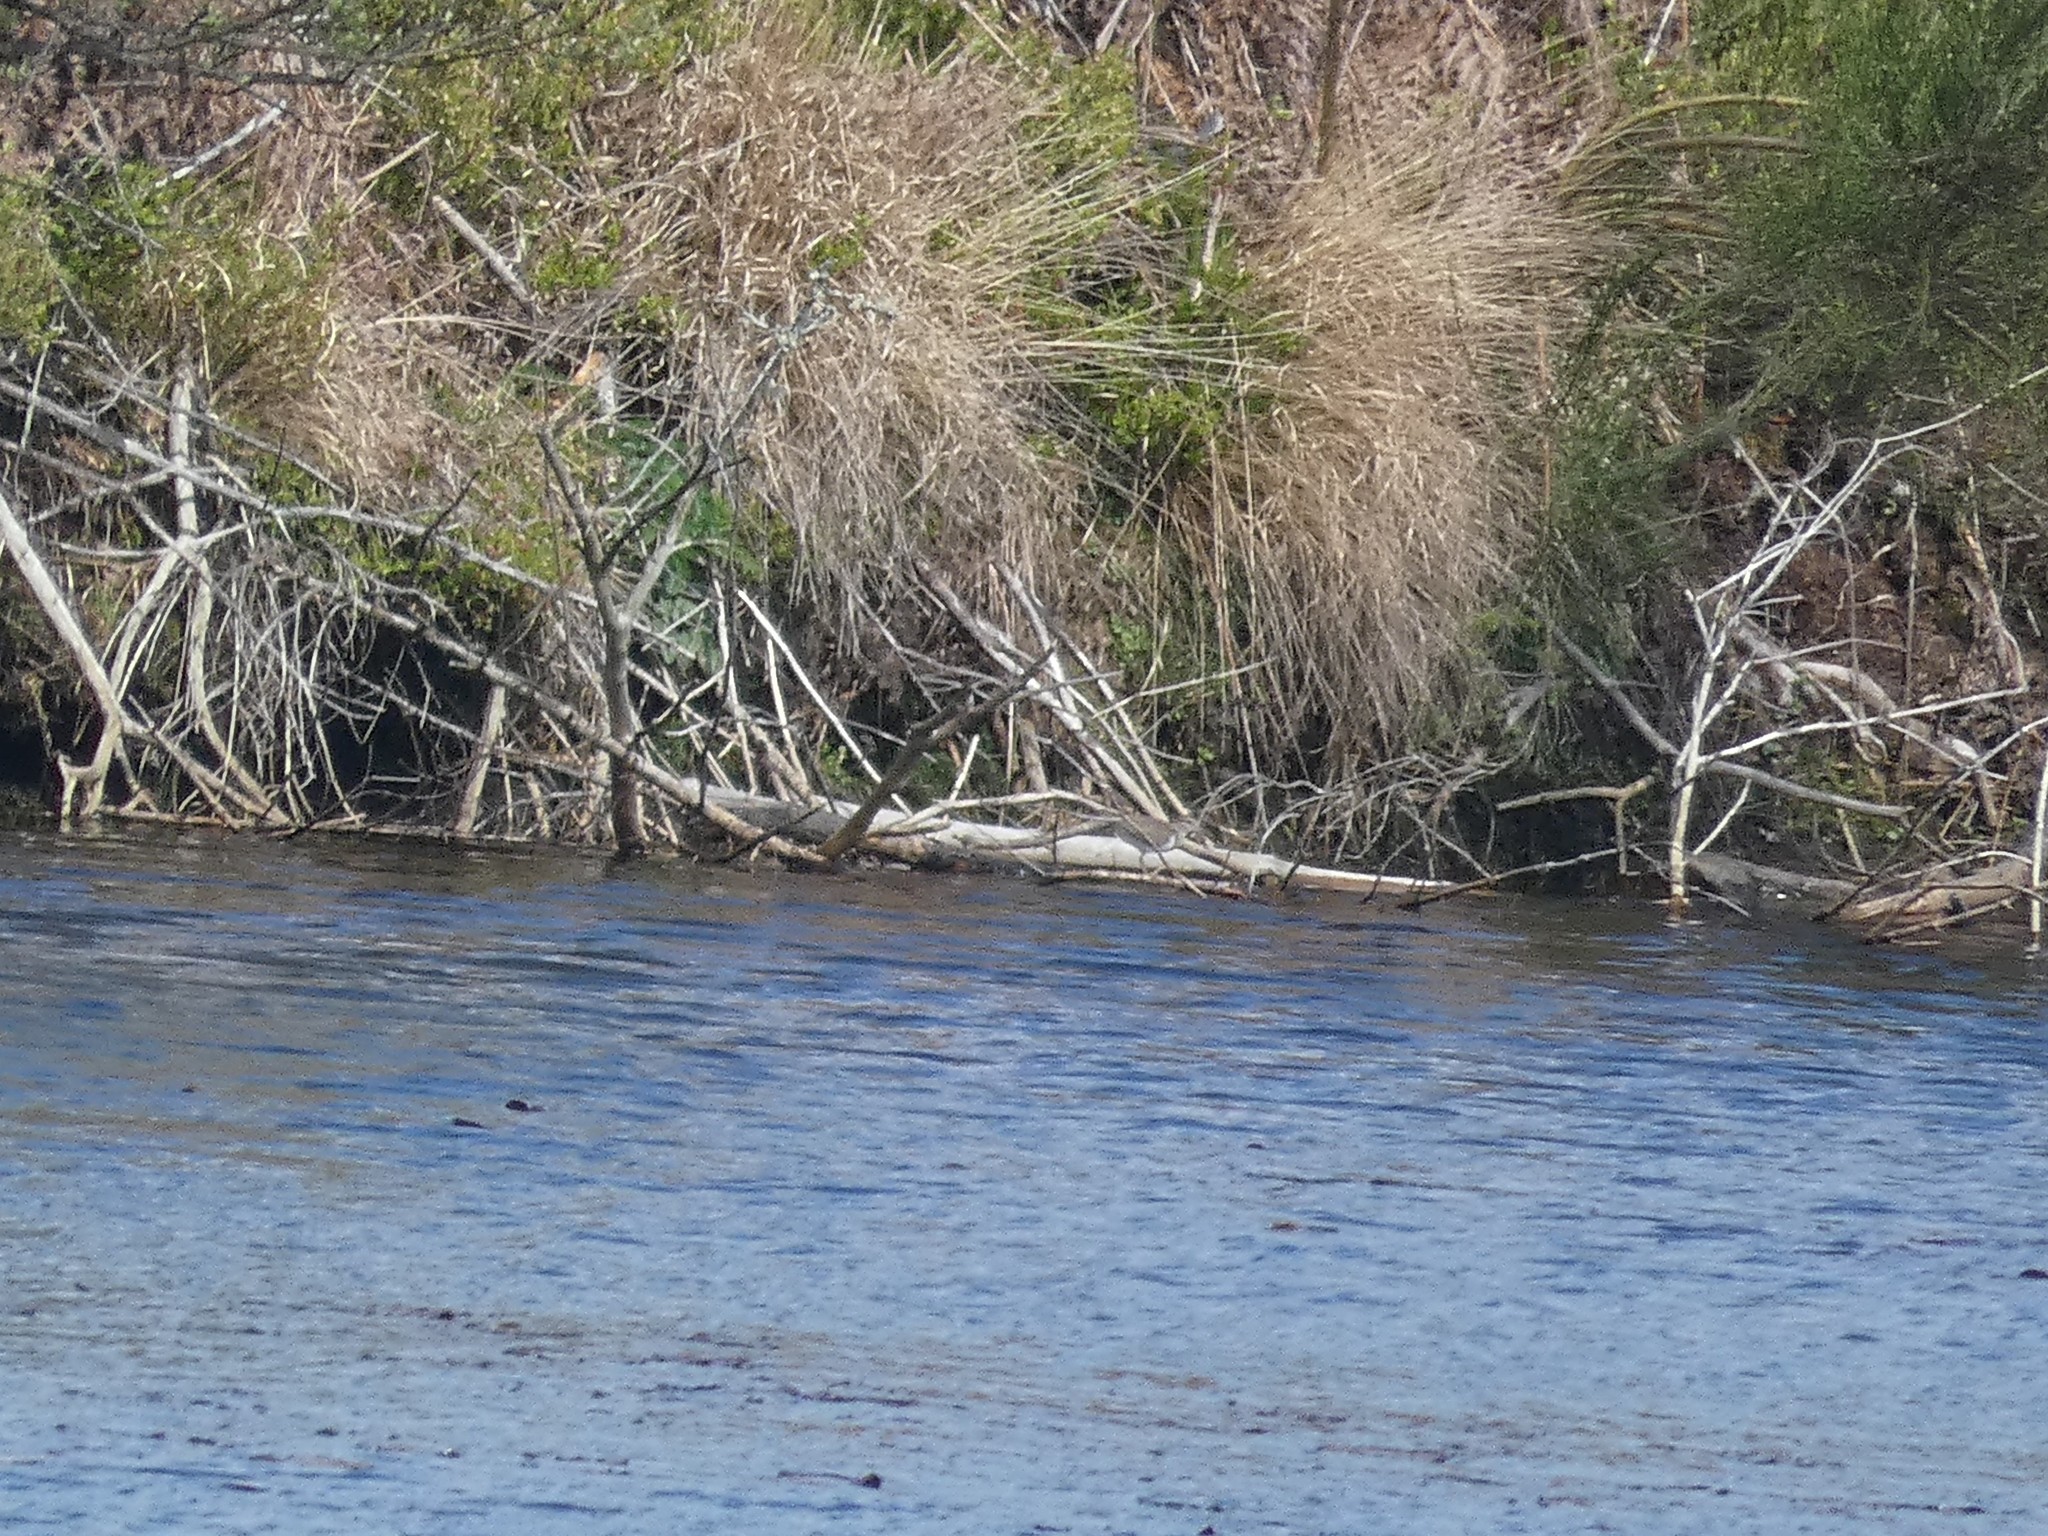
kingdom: Animalia
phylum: Chordata
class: Aves
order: Charadriiformes
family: Scolopacidae
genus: Actitis
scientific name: Actitis hypoleucos
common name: Common sandpiper
